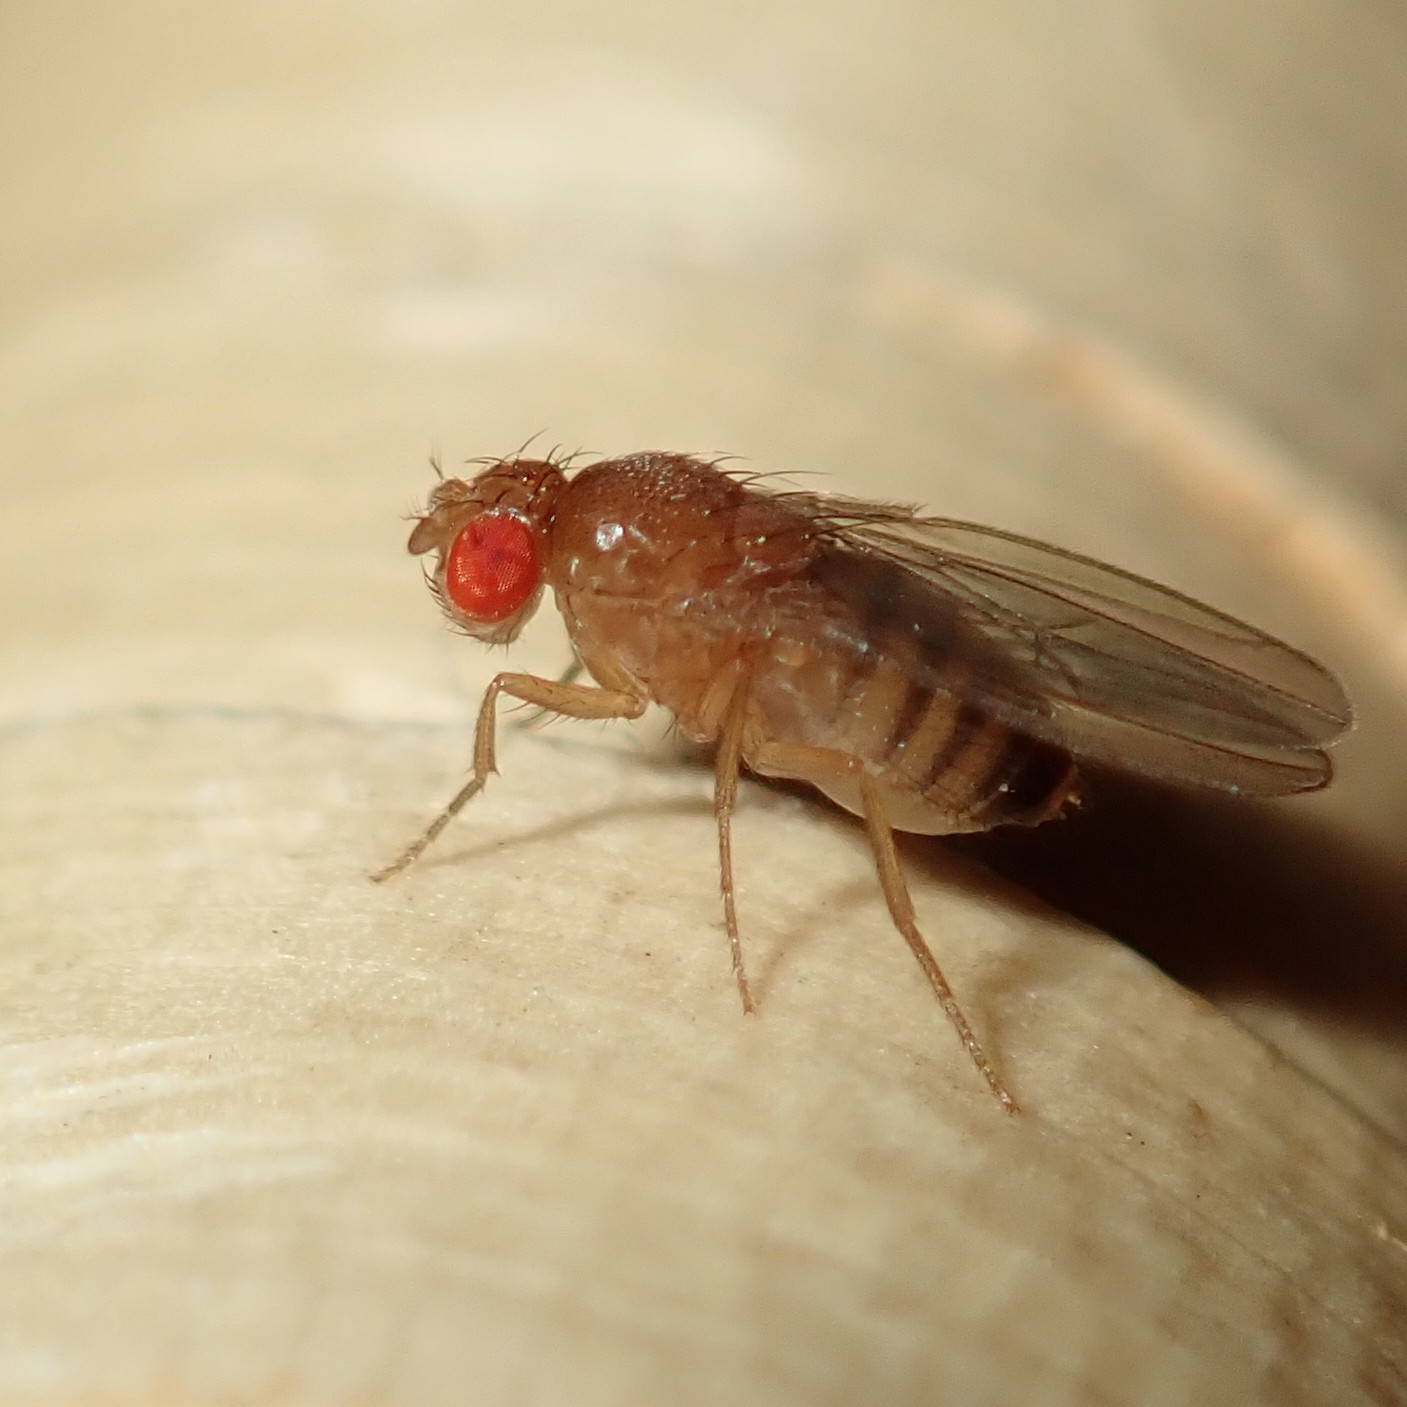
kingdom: Animalia
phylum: Arthropoda
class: Insecta
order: Diptera
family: Drosophilidae
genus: Drosophila
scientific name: Drosophila melanogaster
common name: Pomace fly
